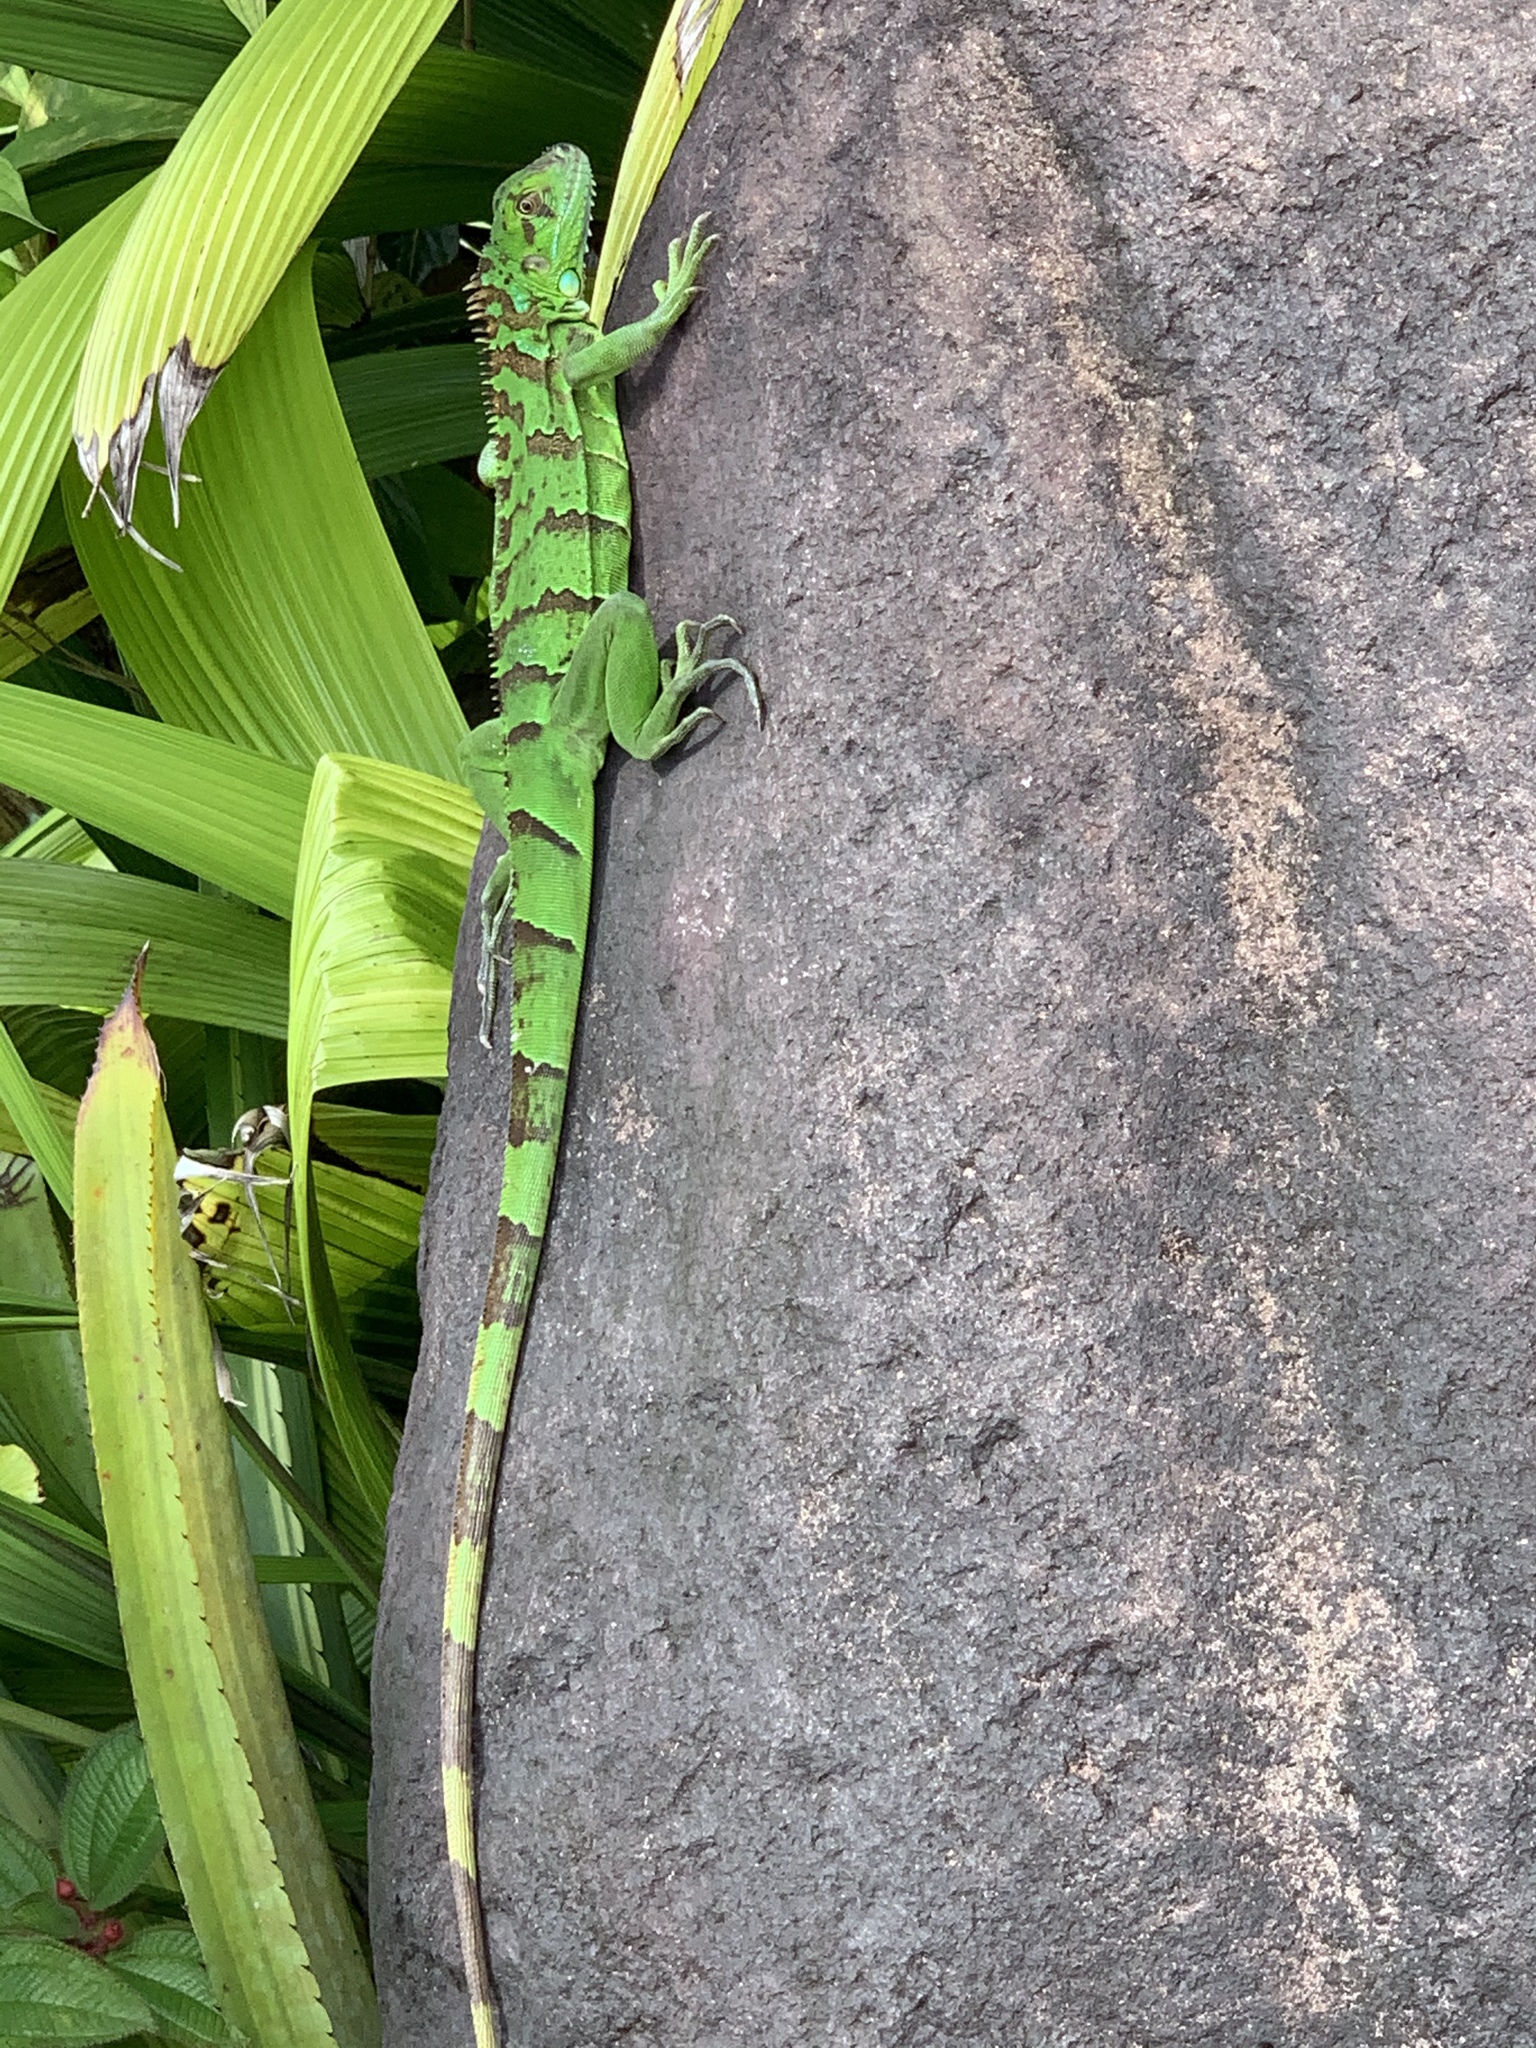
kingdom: Animalia
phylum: Chordata
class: Squamata
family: Iguanidae
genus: Iguana
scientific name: Iguana iguana
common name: Green iguana
